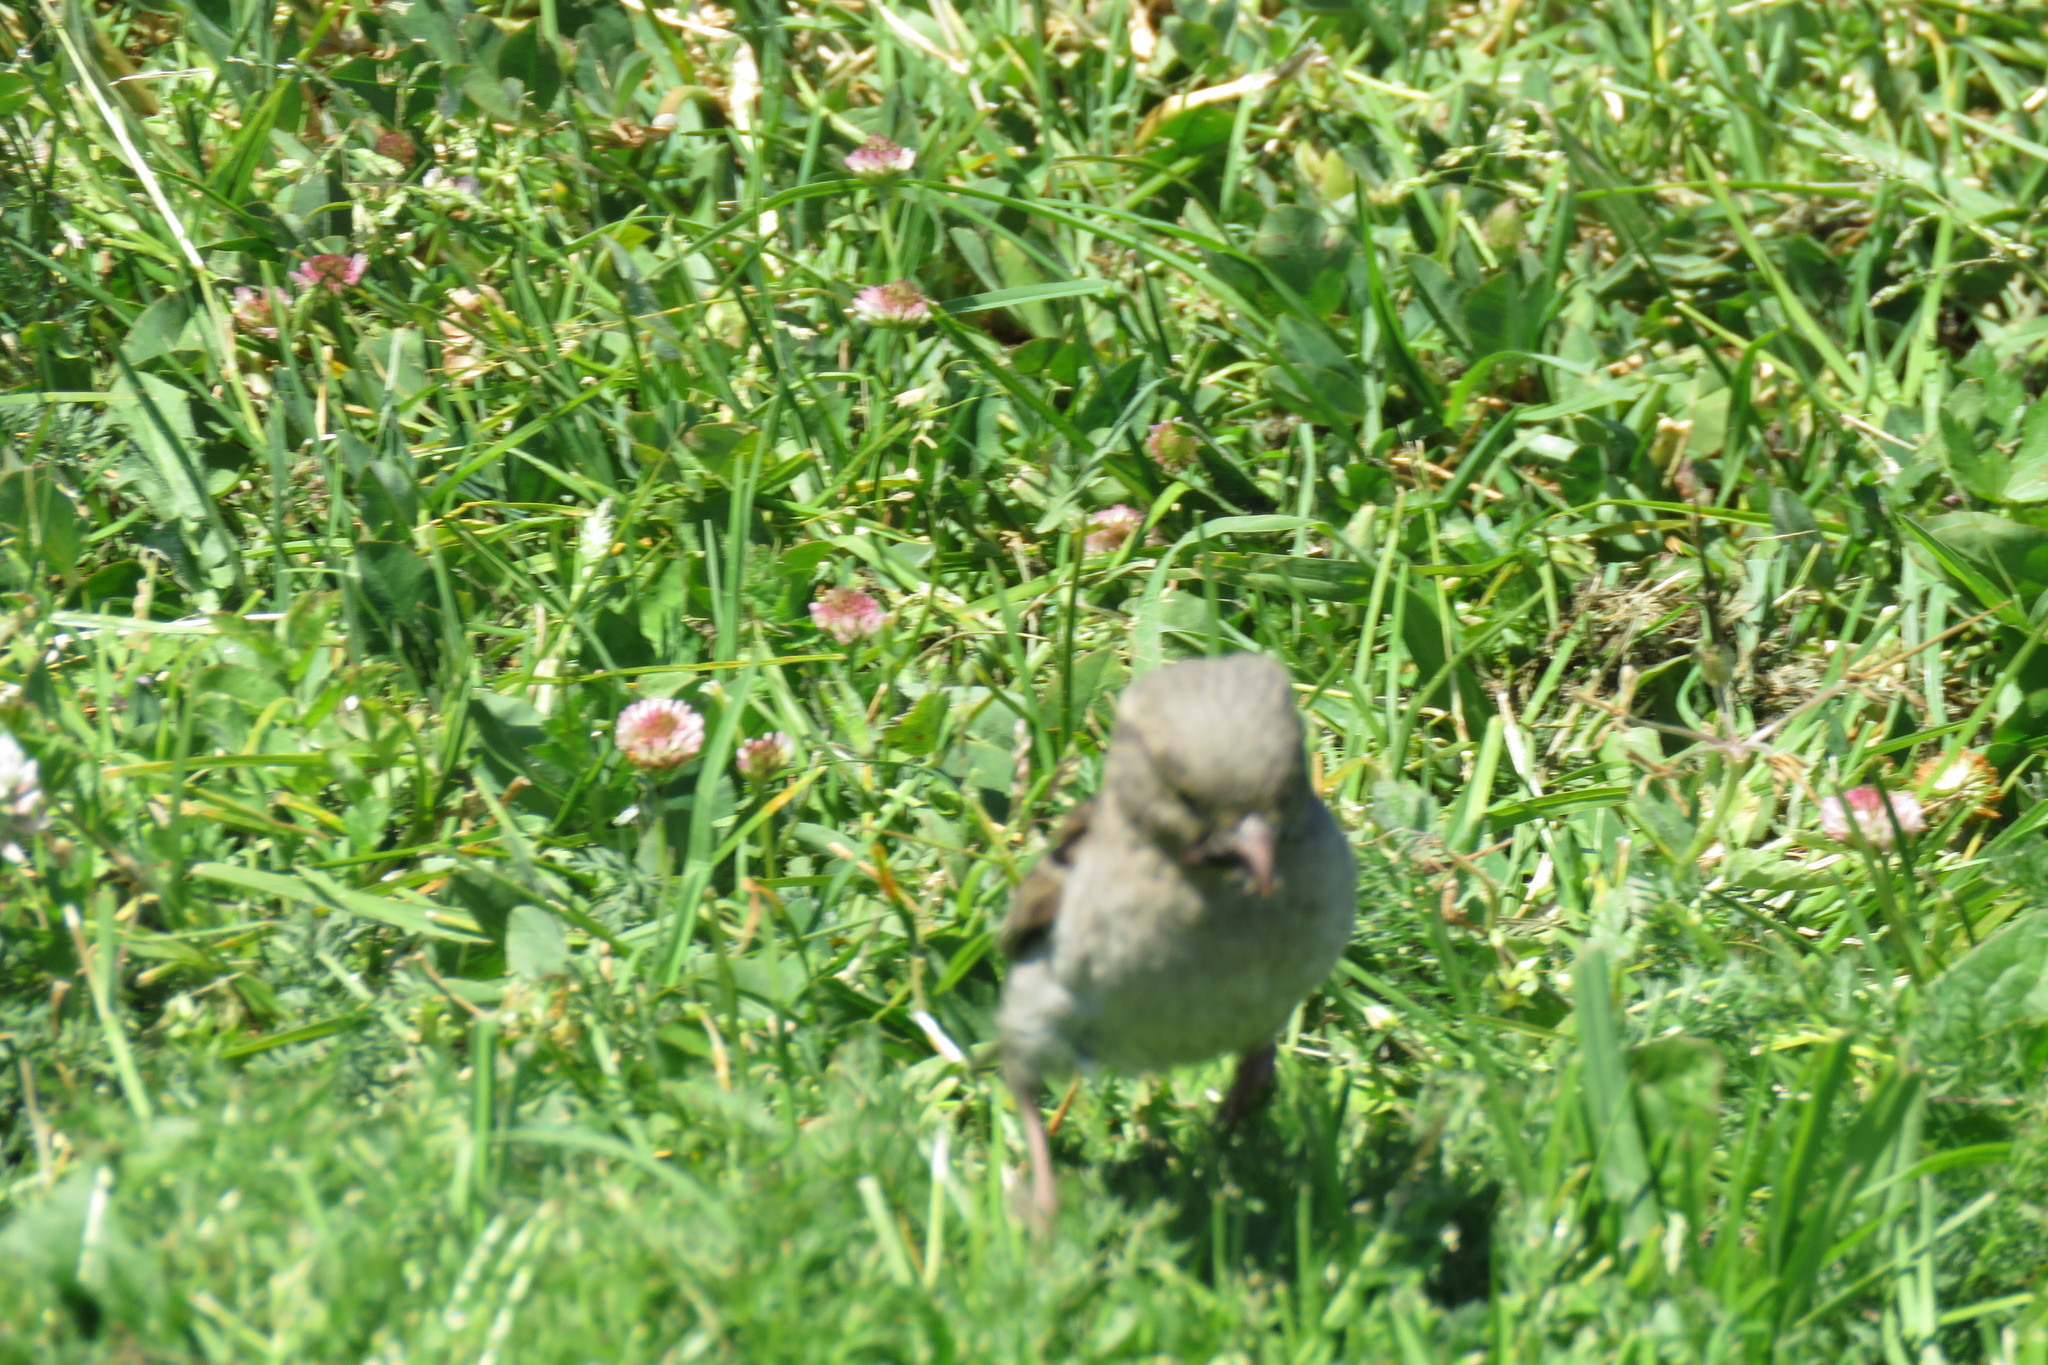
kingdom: Animalia
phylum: Chordata
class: Aves
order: Passeriformes
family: Passeridae
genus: Passer
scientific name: Passer domesticus
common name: House sparrow
